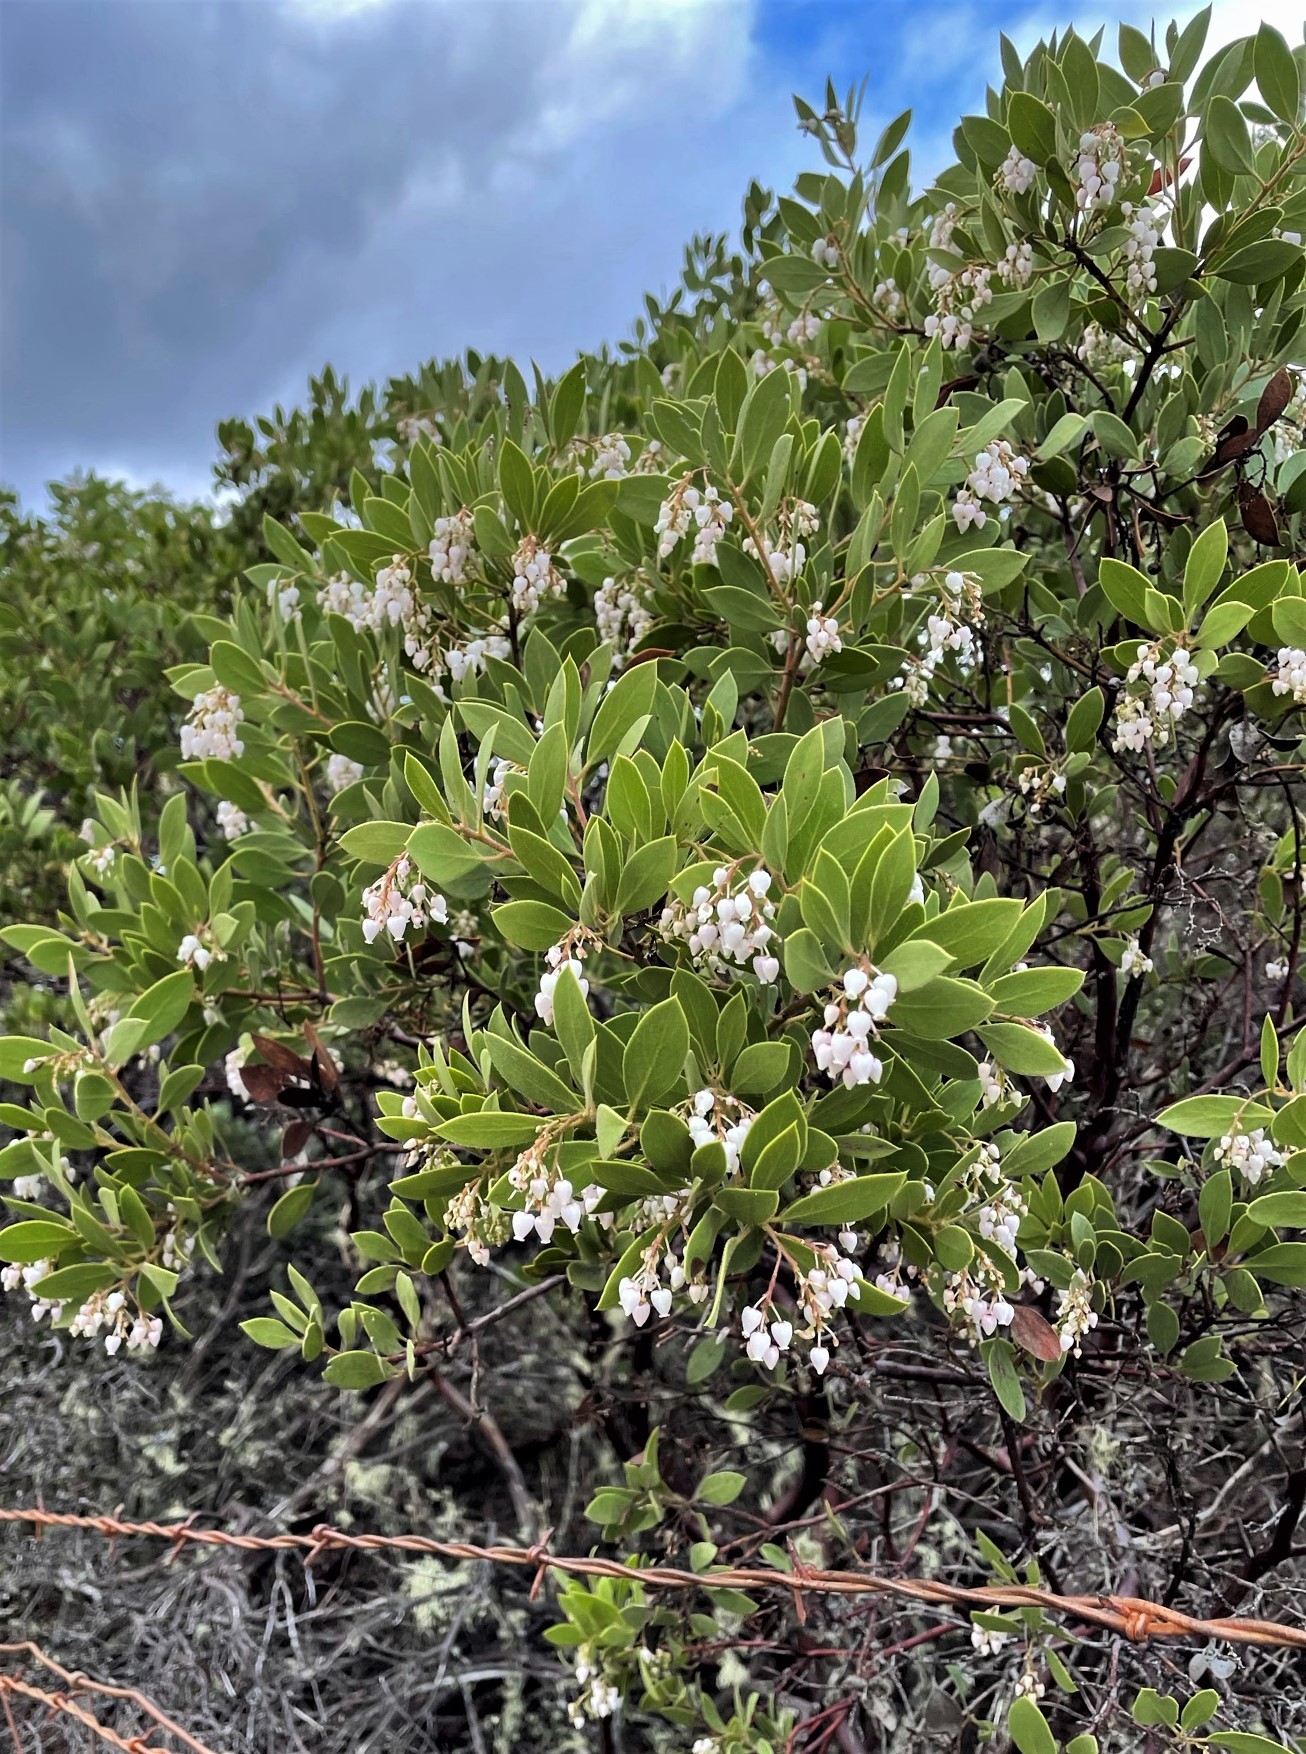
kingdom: Plantae
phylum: Tracheophyta
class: Magnoliopsida
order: Ericales
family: Ericaceae
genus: Arctostaphylos
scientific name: Arctostaphylos hispidula
